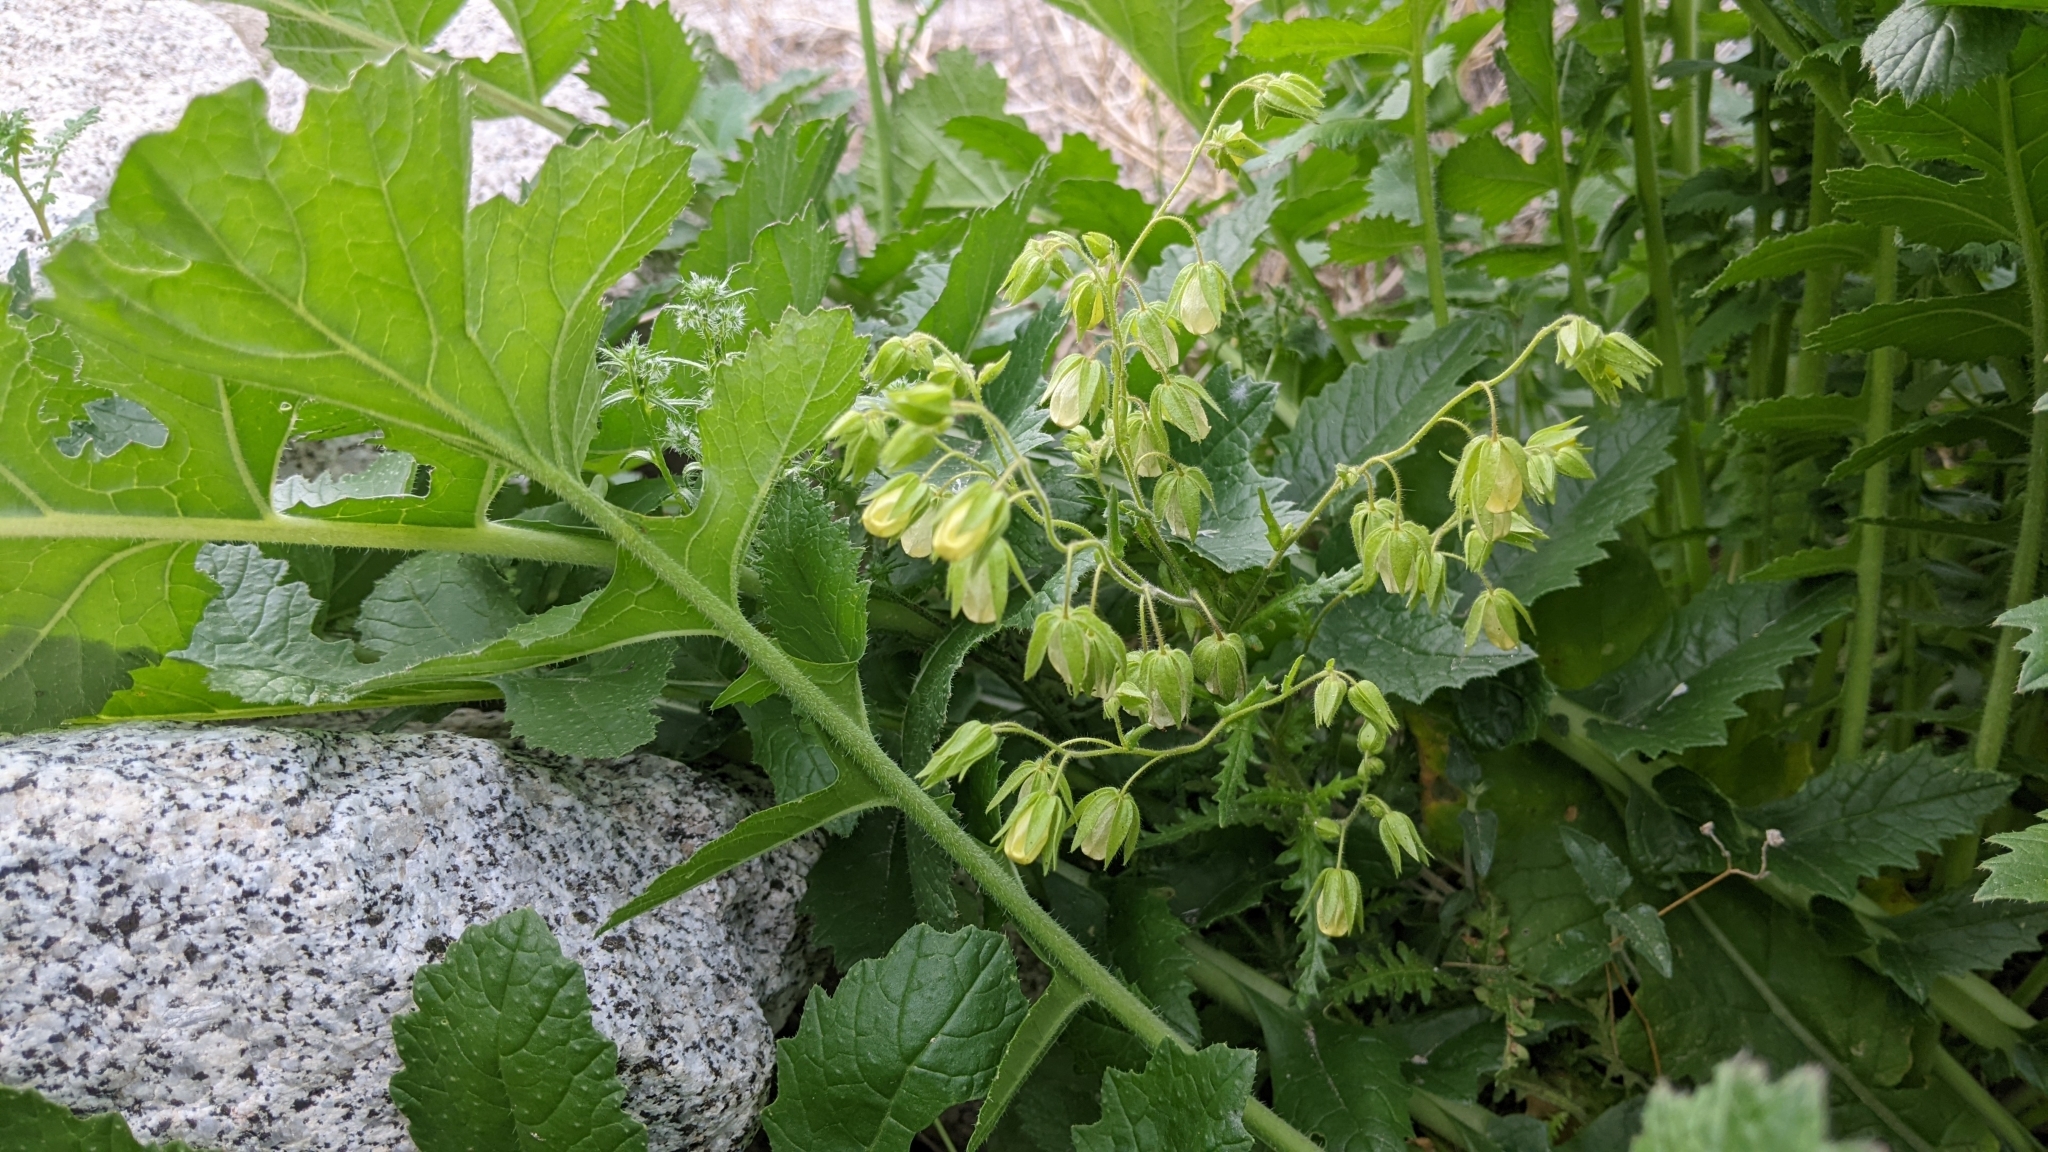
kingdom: Plantae
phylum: Tracheophyta
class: Magnoliopsida
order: Boraginales
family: Hydrophyllaceae
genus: Emmenanthe
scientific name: Emmenanthe penduliflora
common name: Whispering-bells
